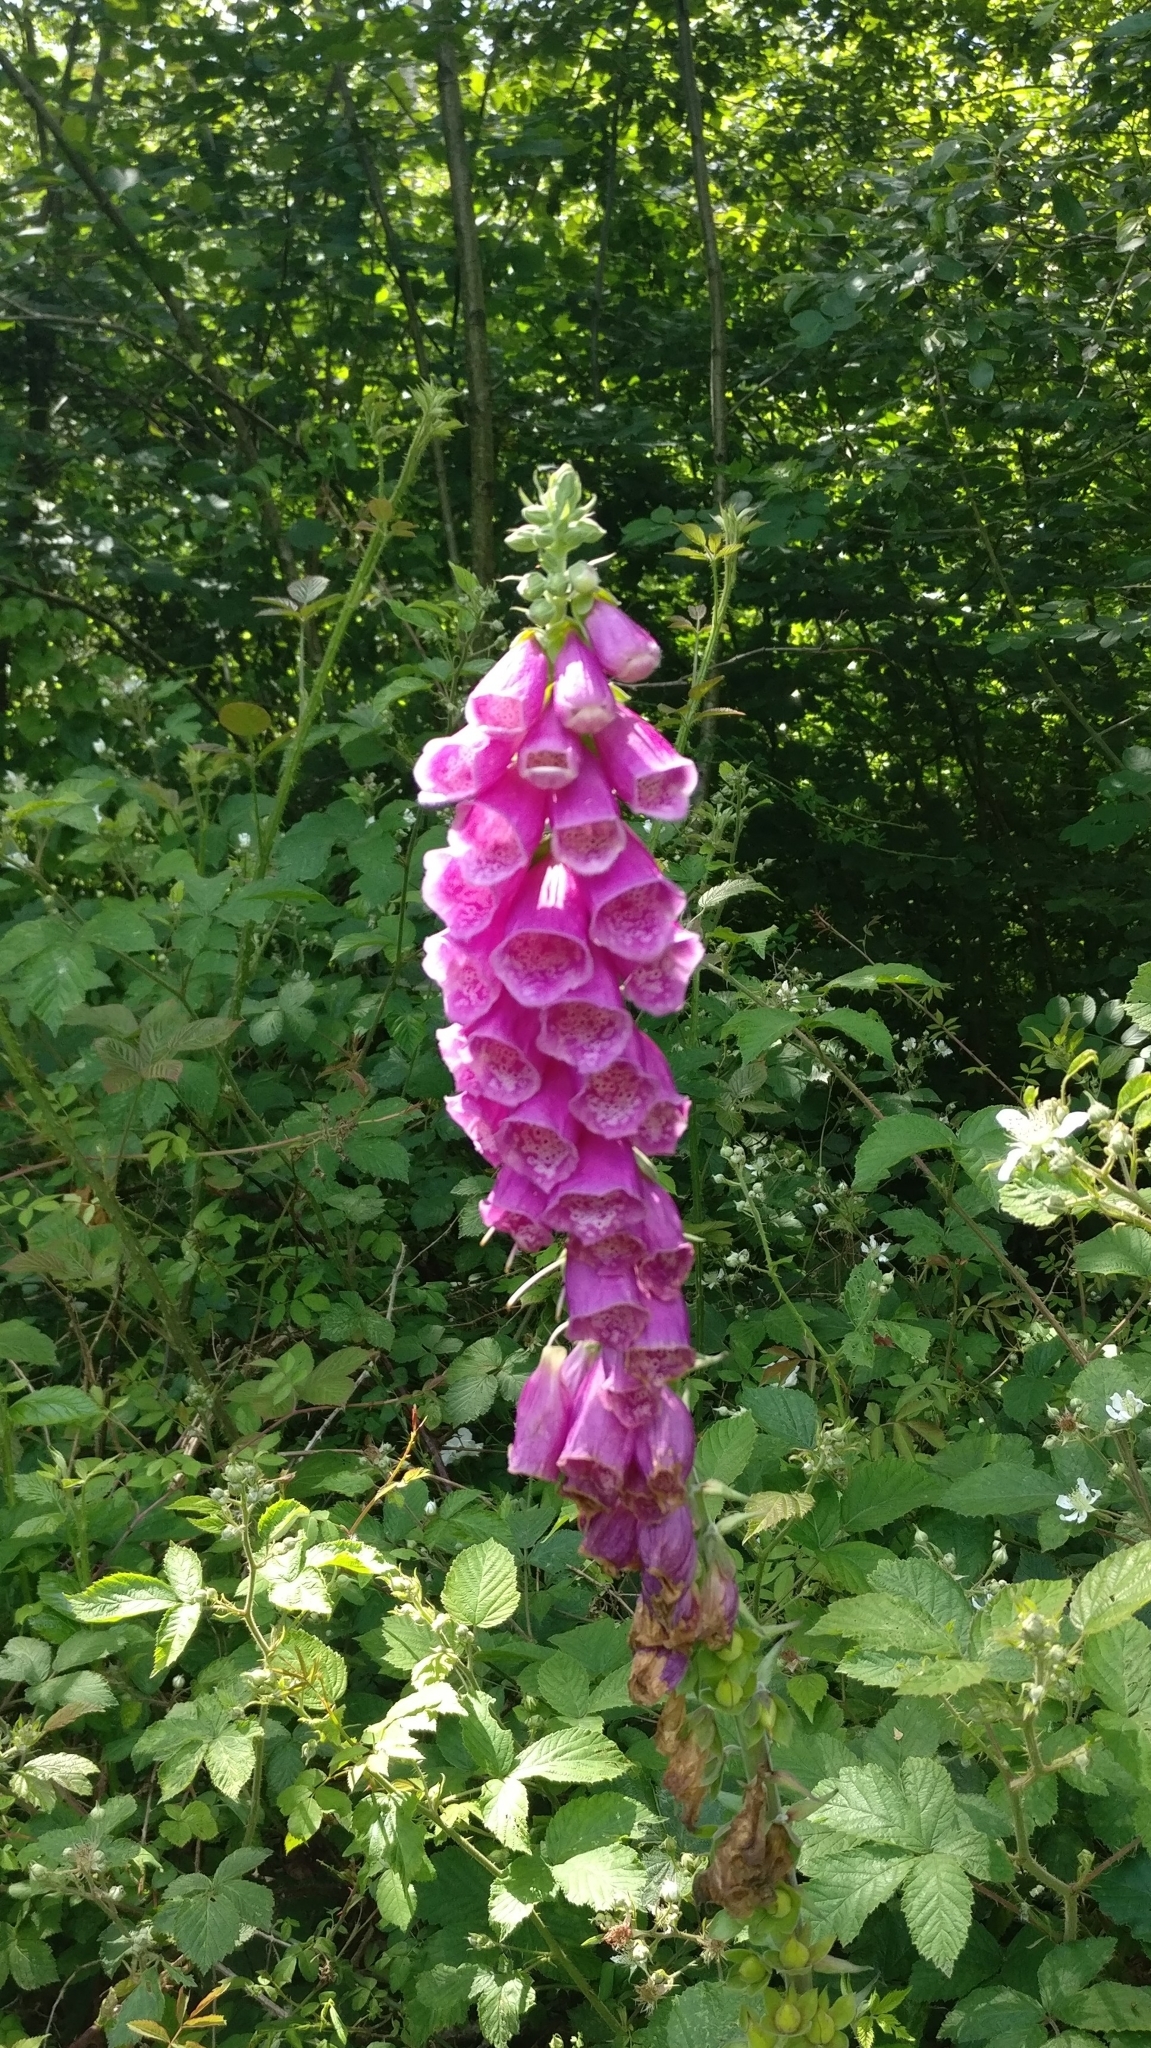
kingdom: Plantae
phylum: Tracheophyta
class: Magnoliopsida
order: Lamiales
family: Plantaginaceae
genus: Digitalis
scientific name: Digitalis purpurea
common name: Foxglove
